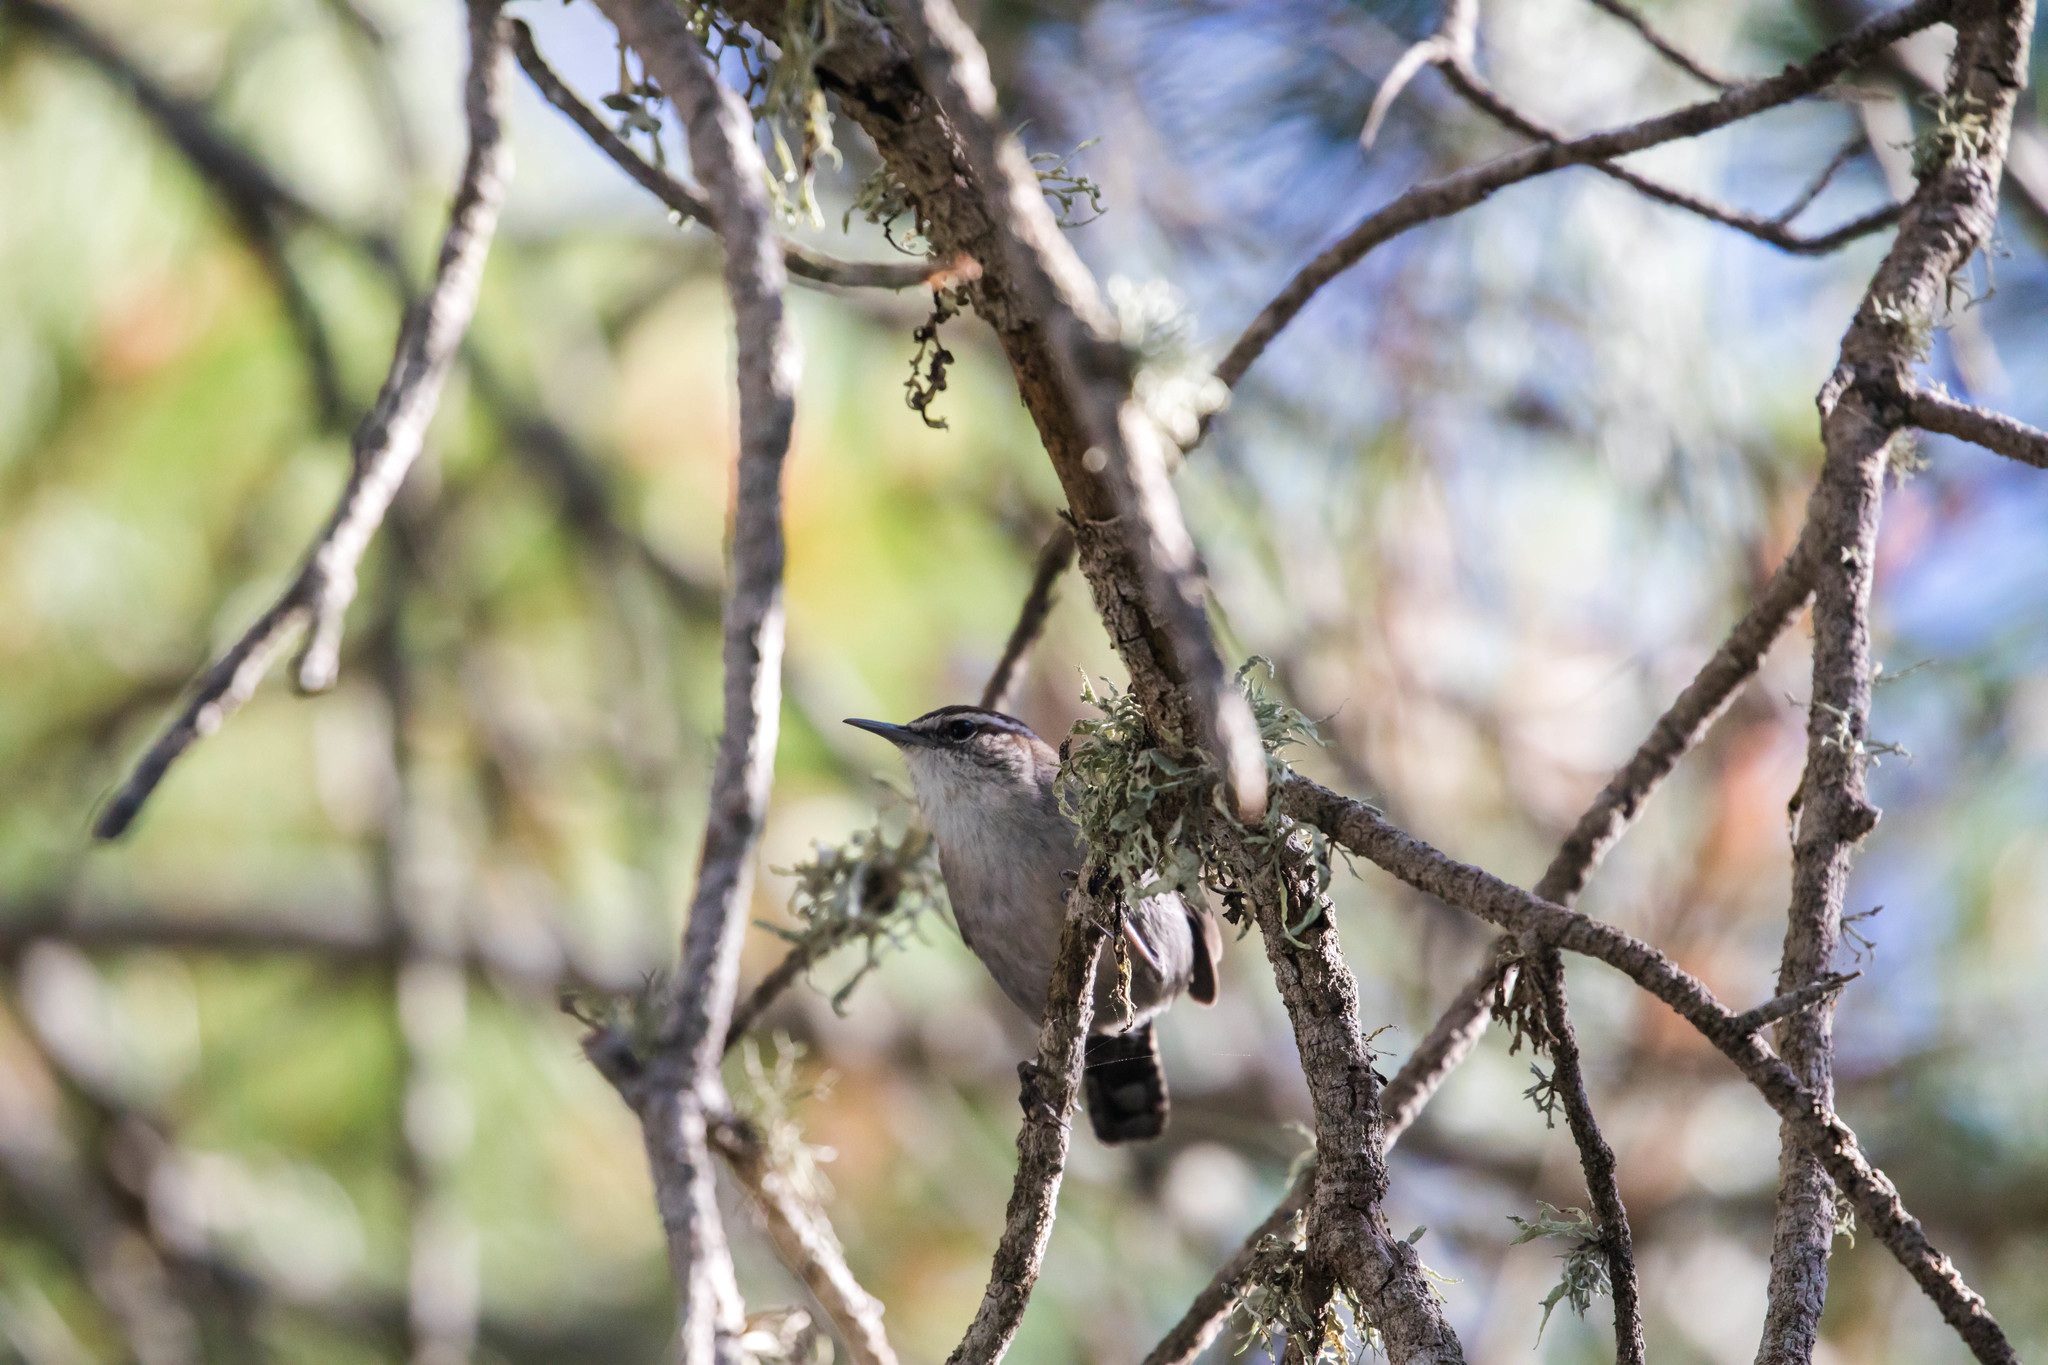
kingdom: Animalia
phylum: Chordata
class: Aves
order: Passeriformes
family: Troglodytidae
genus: Thryomanes
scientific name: Thryomanes bewickii
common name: Bewick's wren
